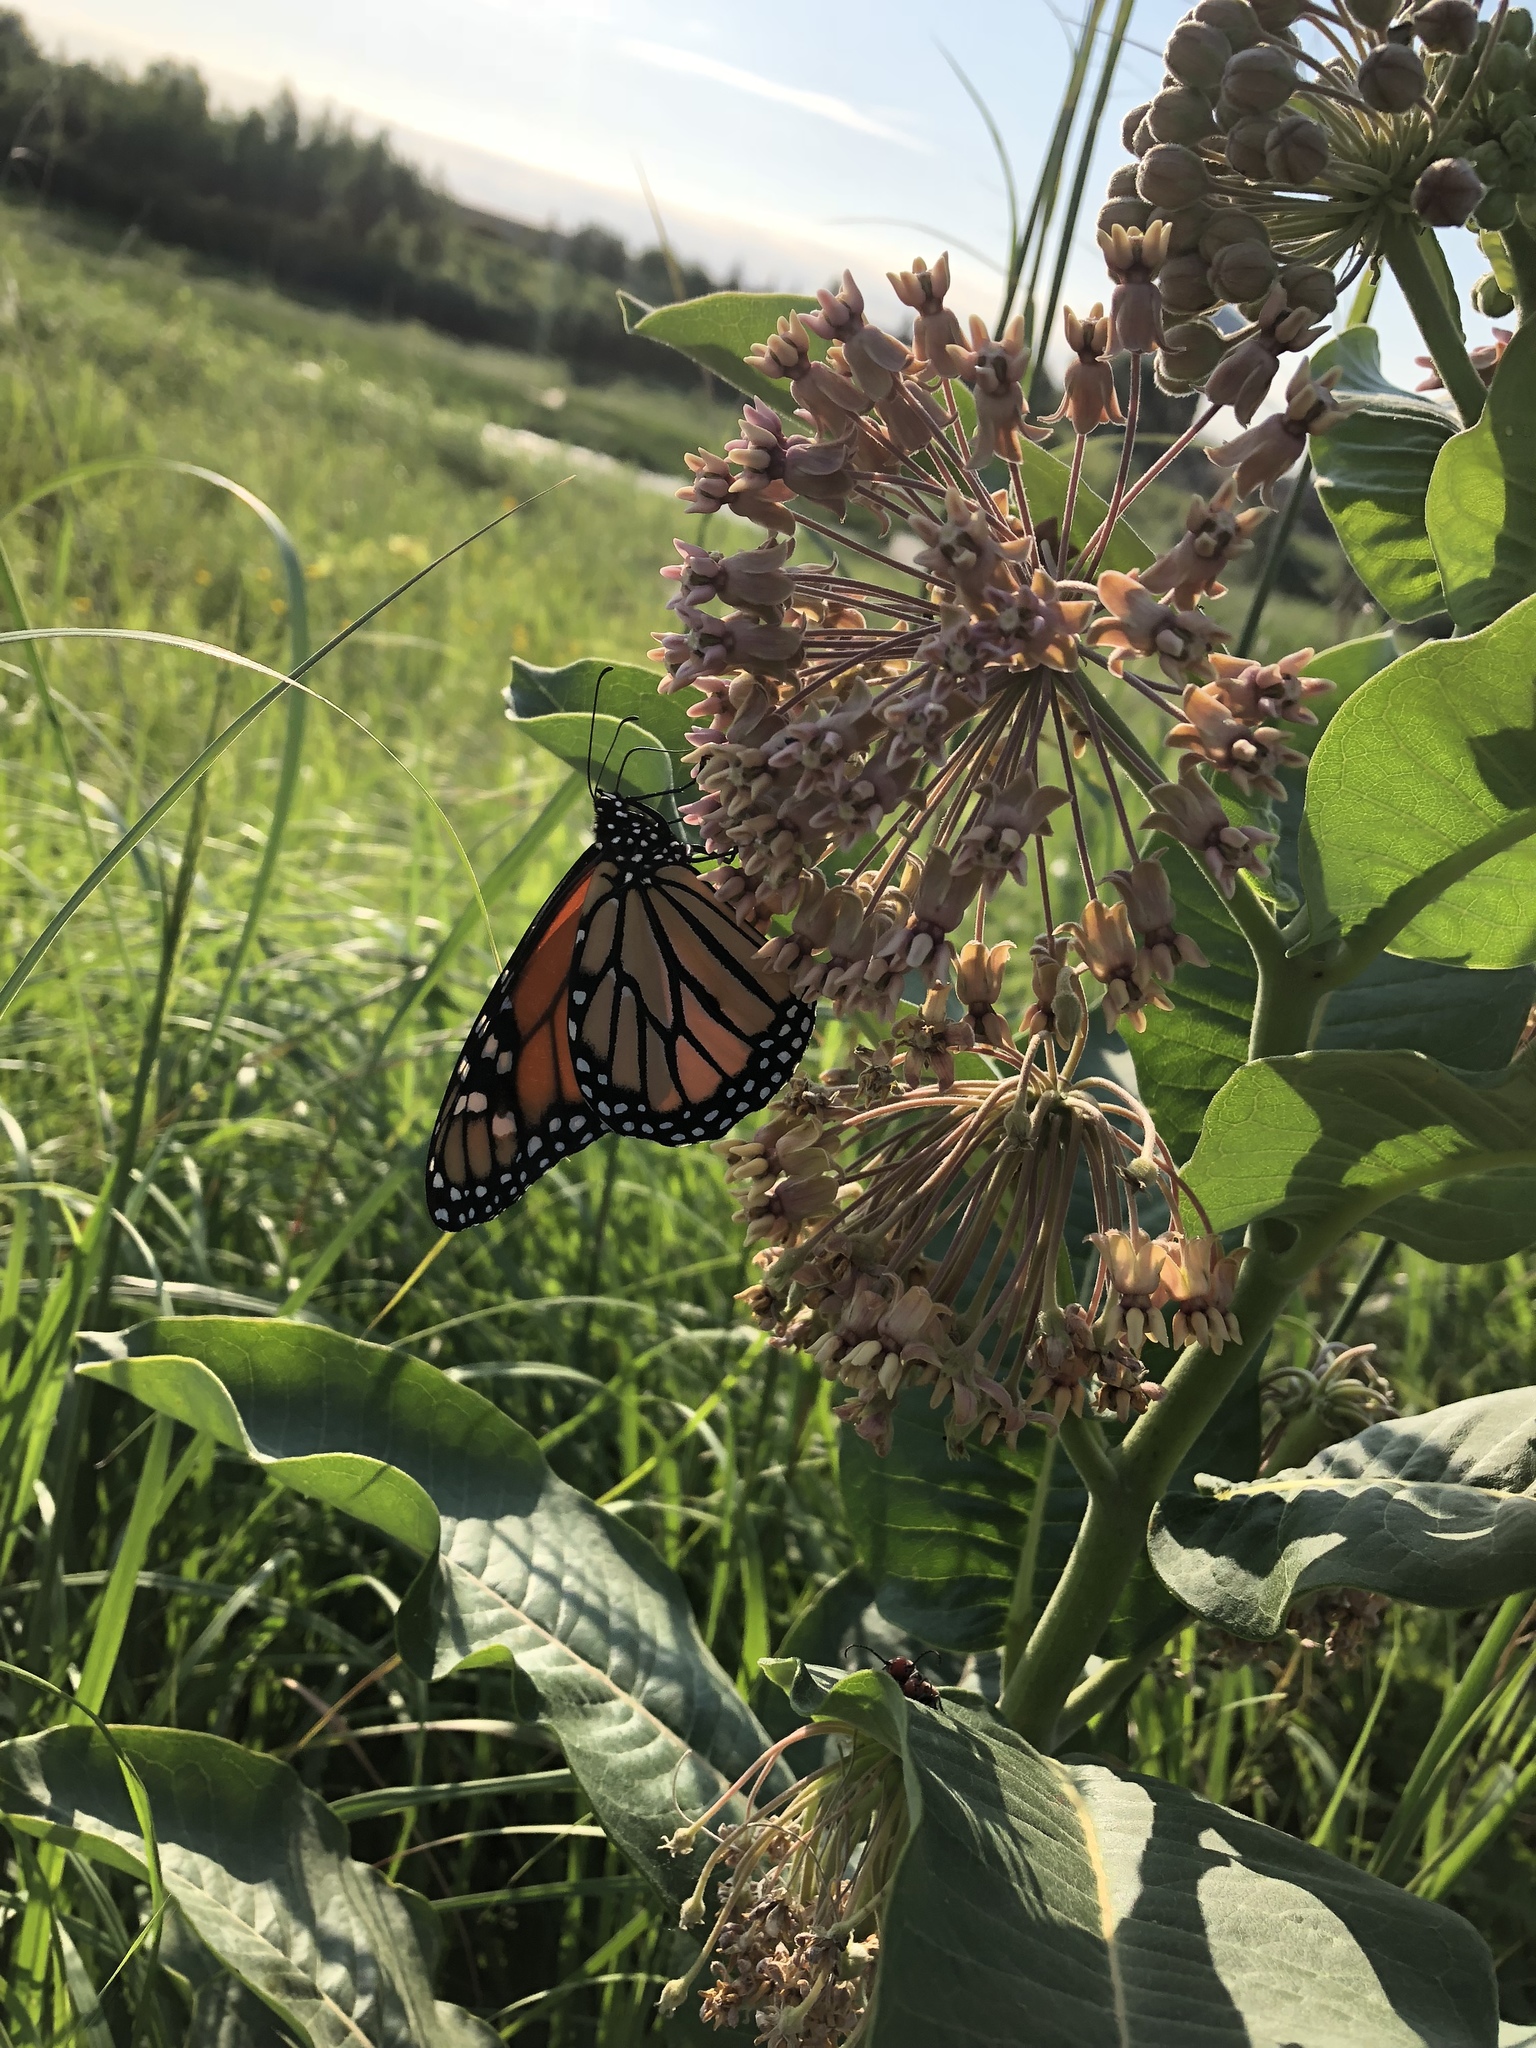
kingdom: Animalia
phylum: Arthropoda
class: Insecta
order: Lepidoptera
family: Nymphalidae
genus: Danaus
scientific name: Danaus plexippus
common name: Monarch
